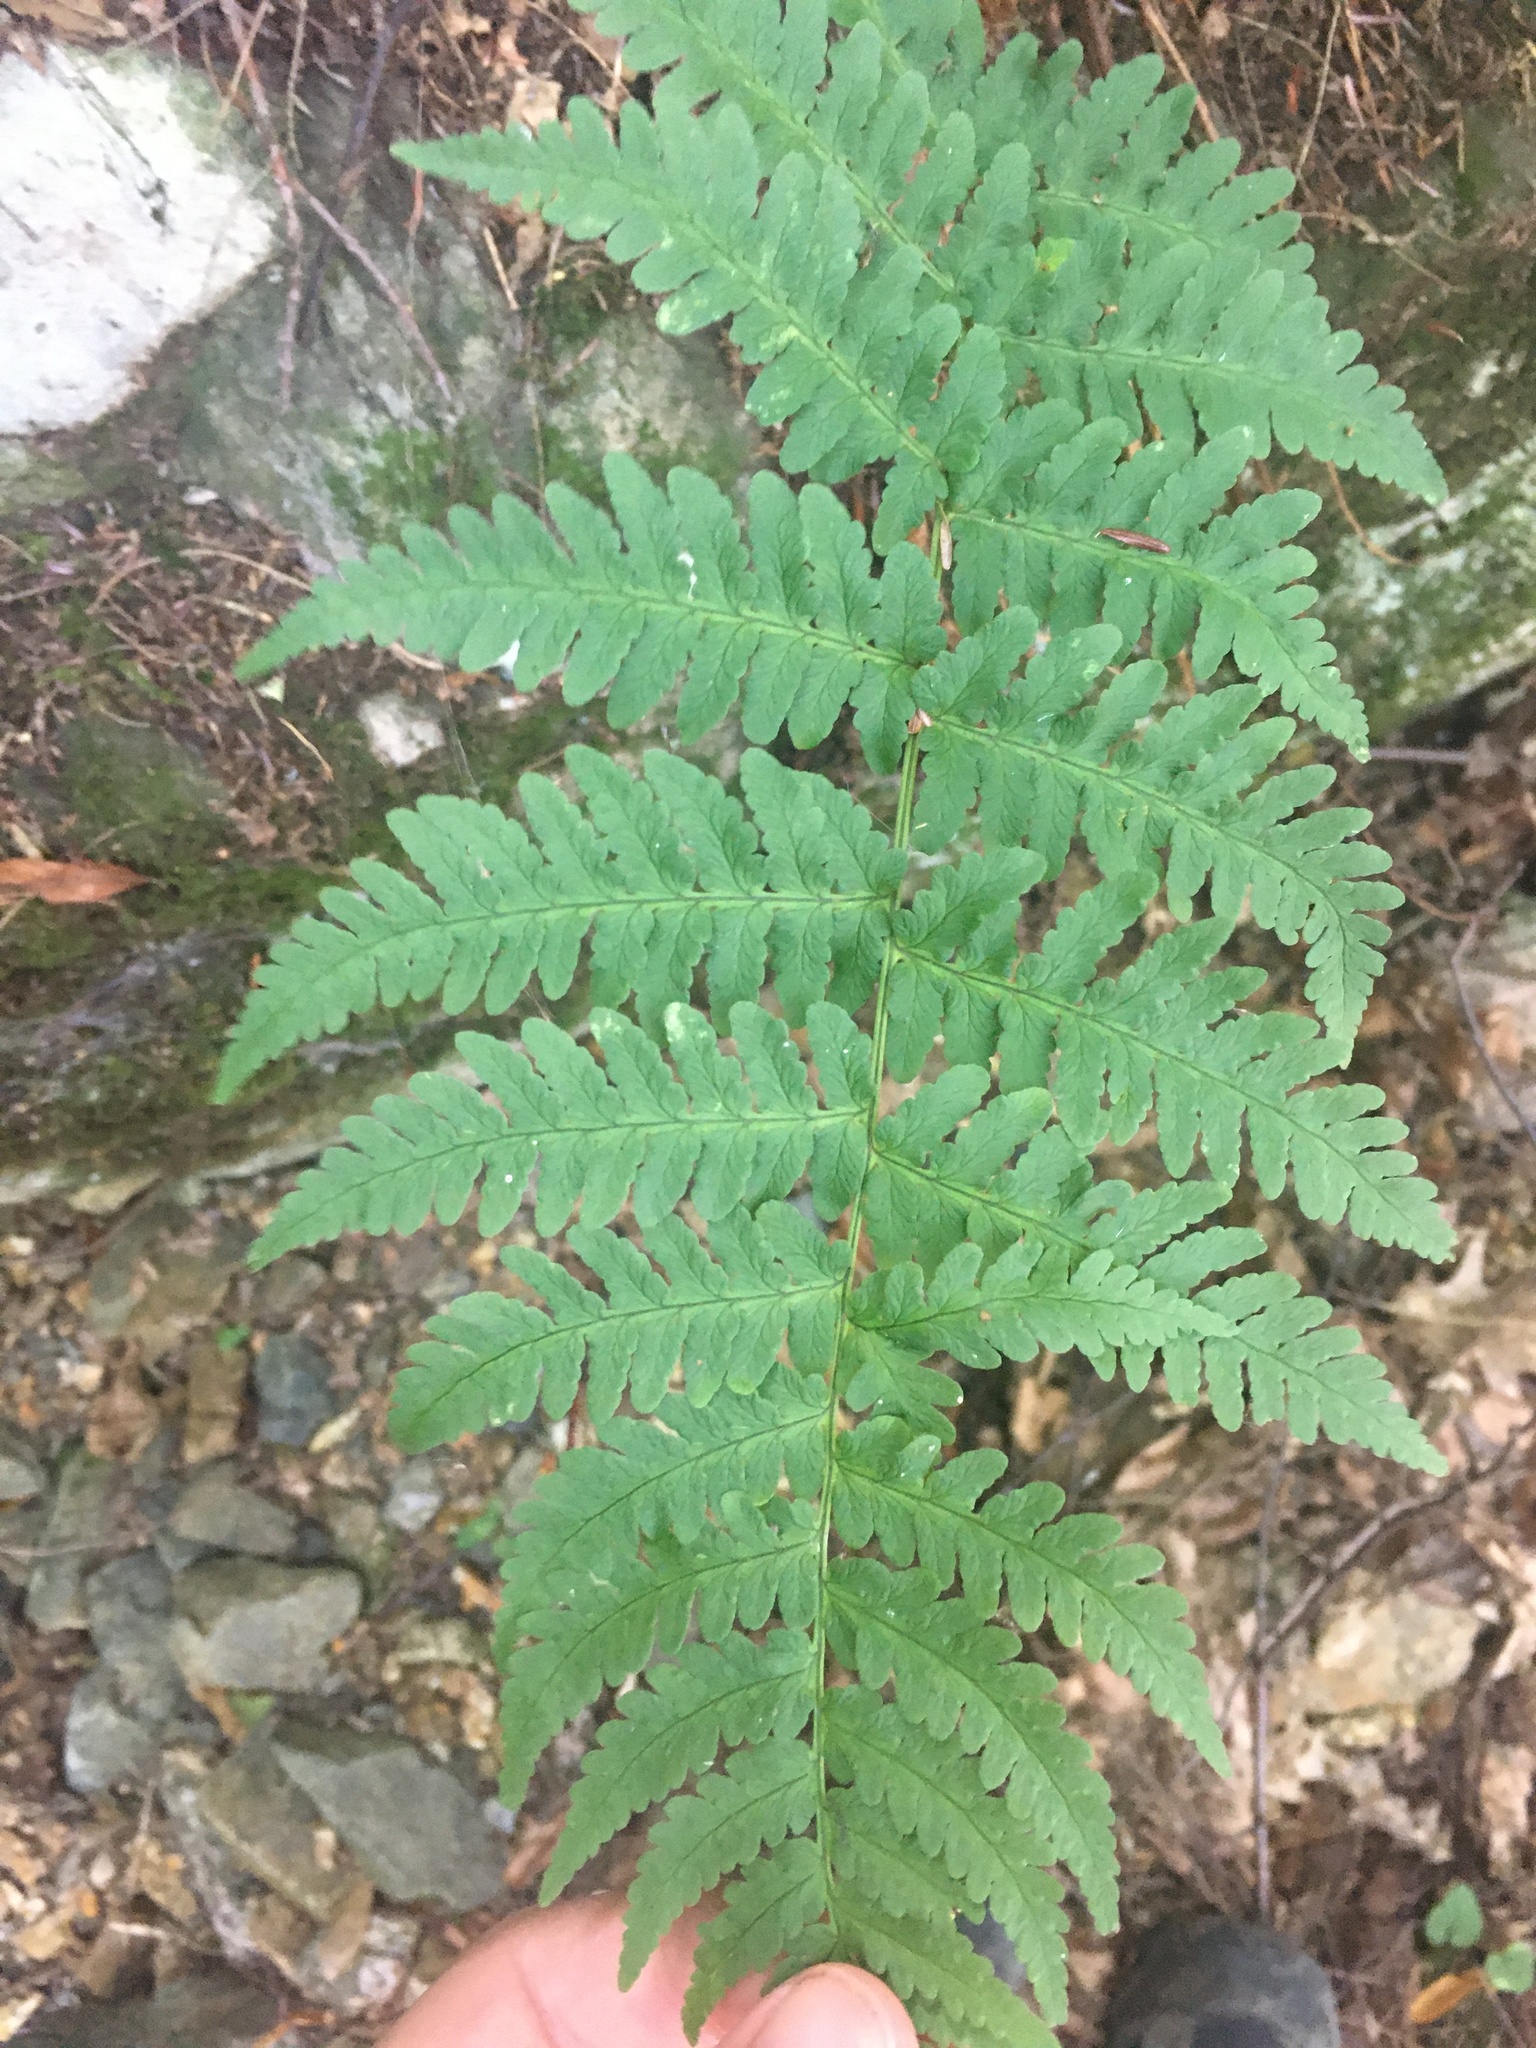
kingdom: Plantae
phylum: Tracheophyta
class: Polypodiopsida
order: Polypodiales
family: Dryopteridaceae
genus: Dryopteris
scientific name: Dryopteris marginalis
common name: Marginal wood fern
